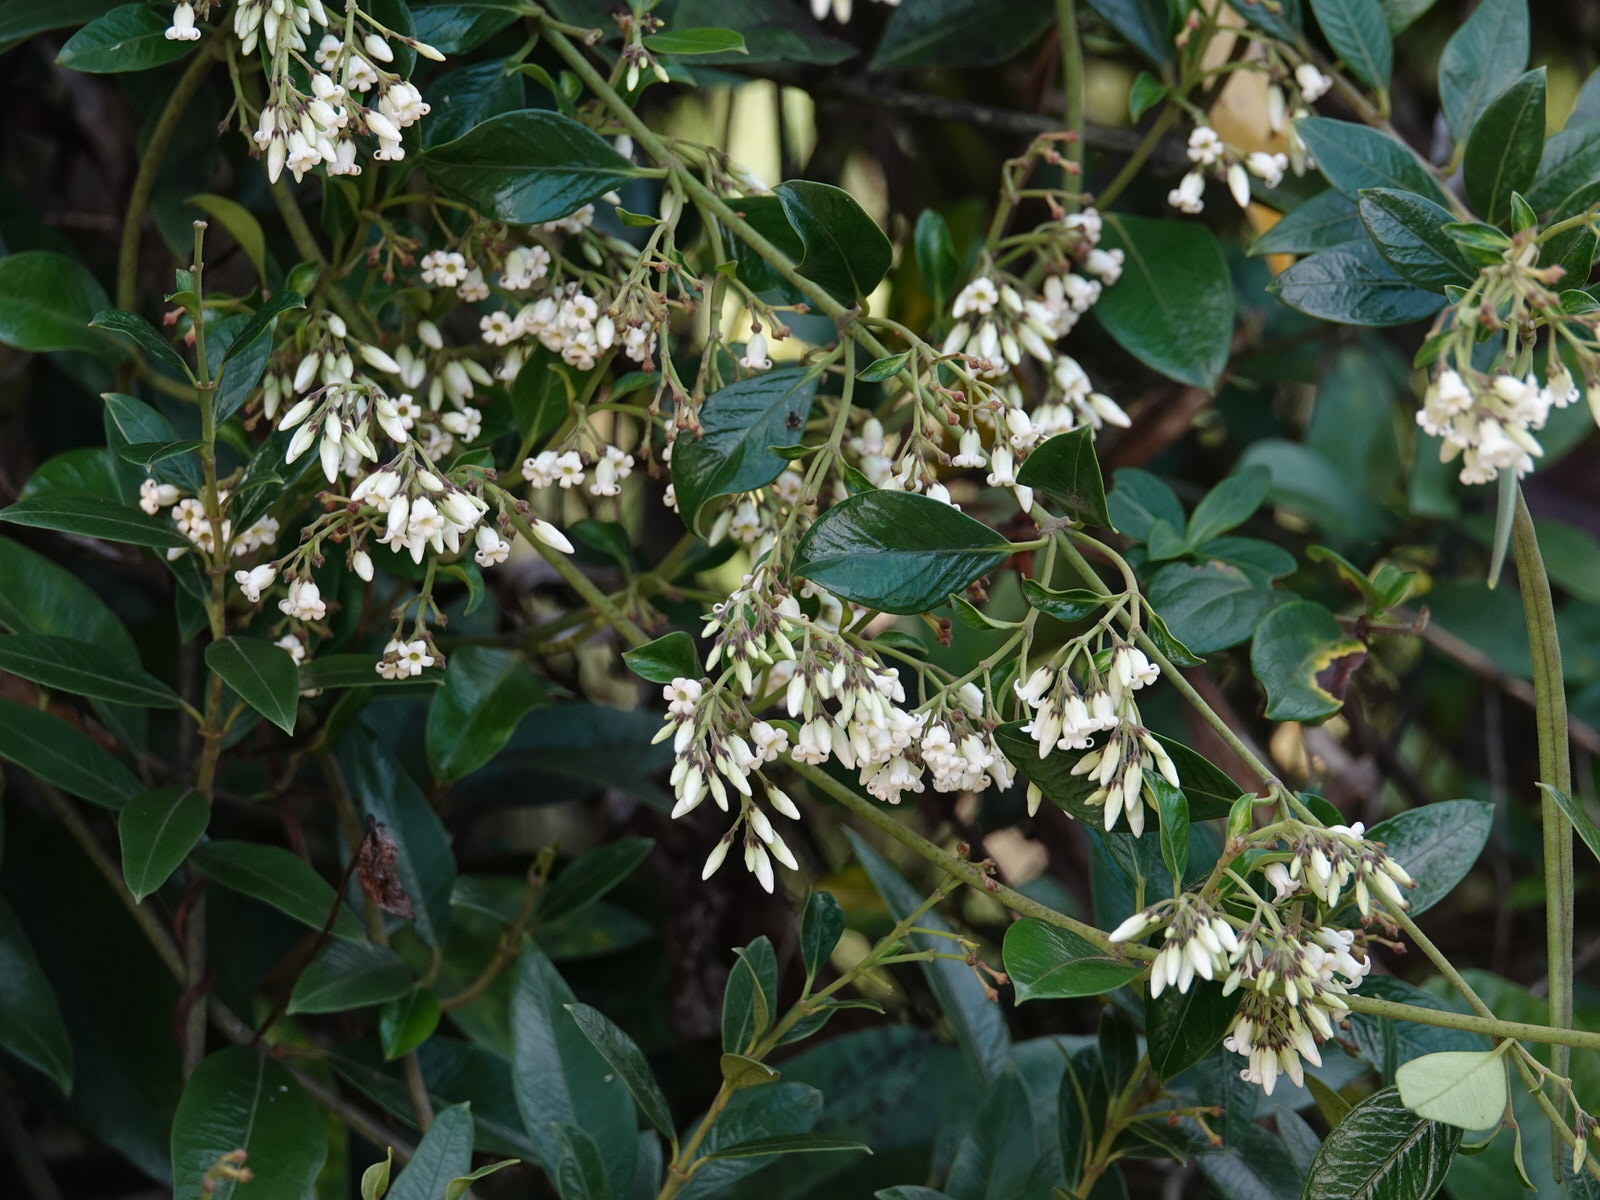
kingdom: Plantae
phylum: Tracheophyta
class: Magnoliopsida
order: Gentianales
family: Apocynaceae
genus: Parsonsia
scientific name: Parsonsia heterophylla
